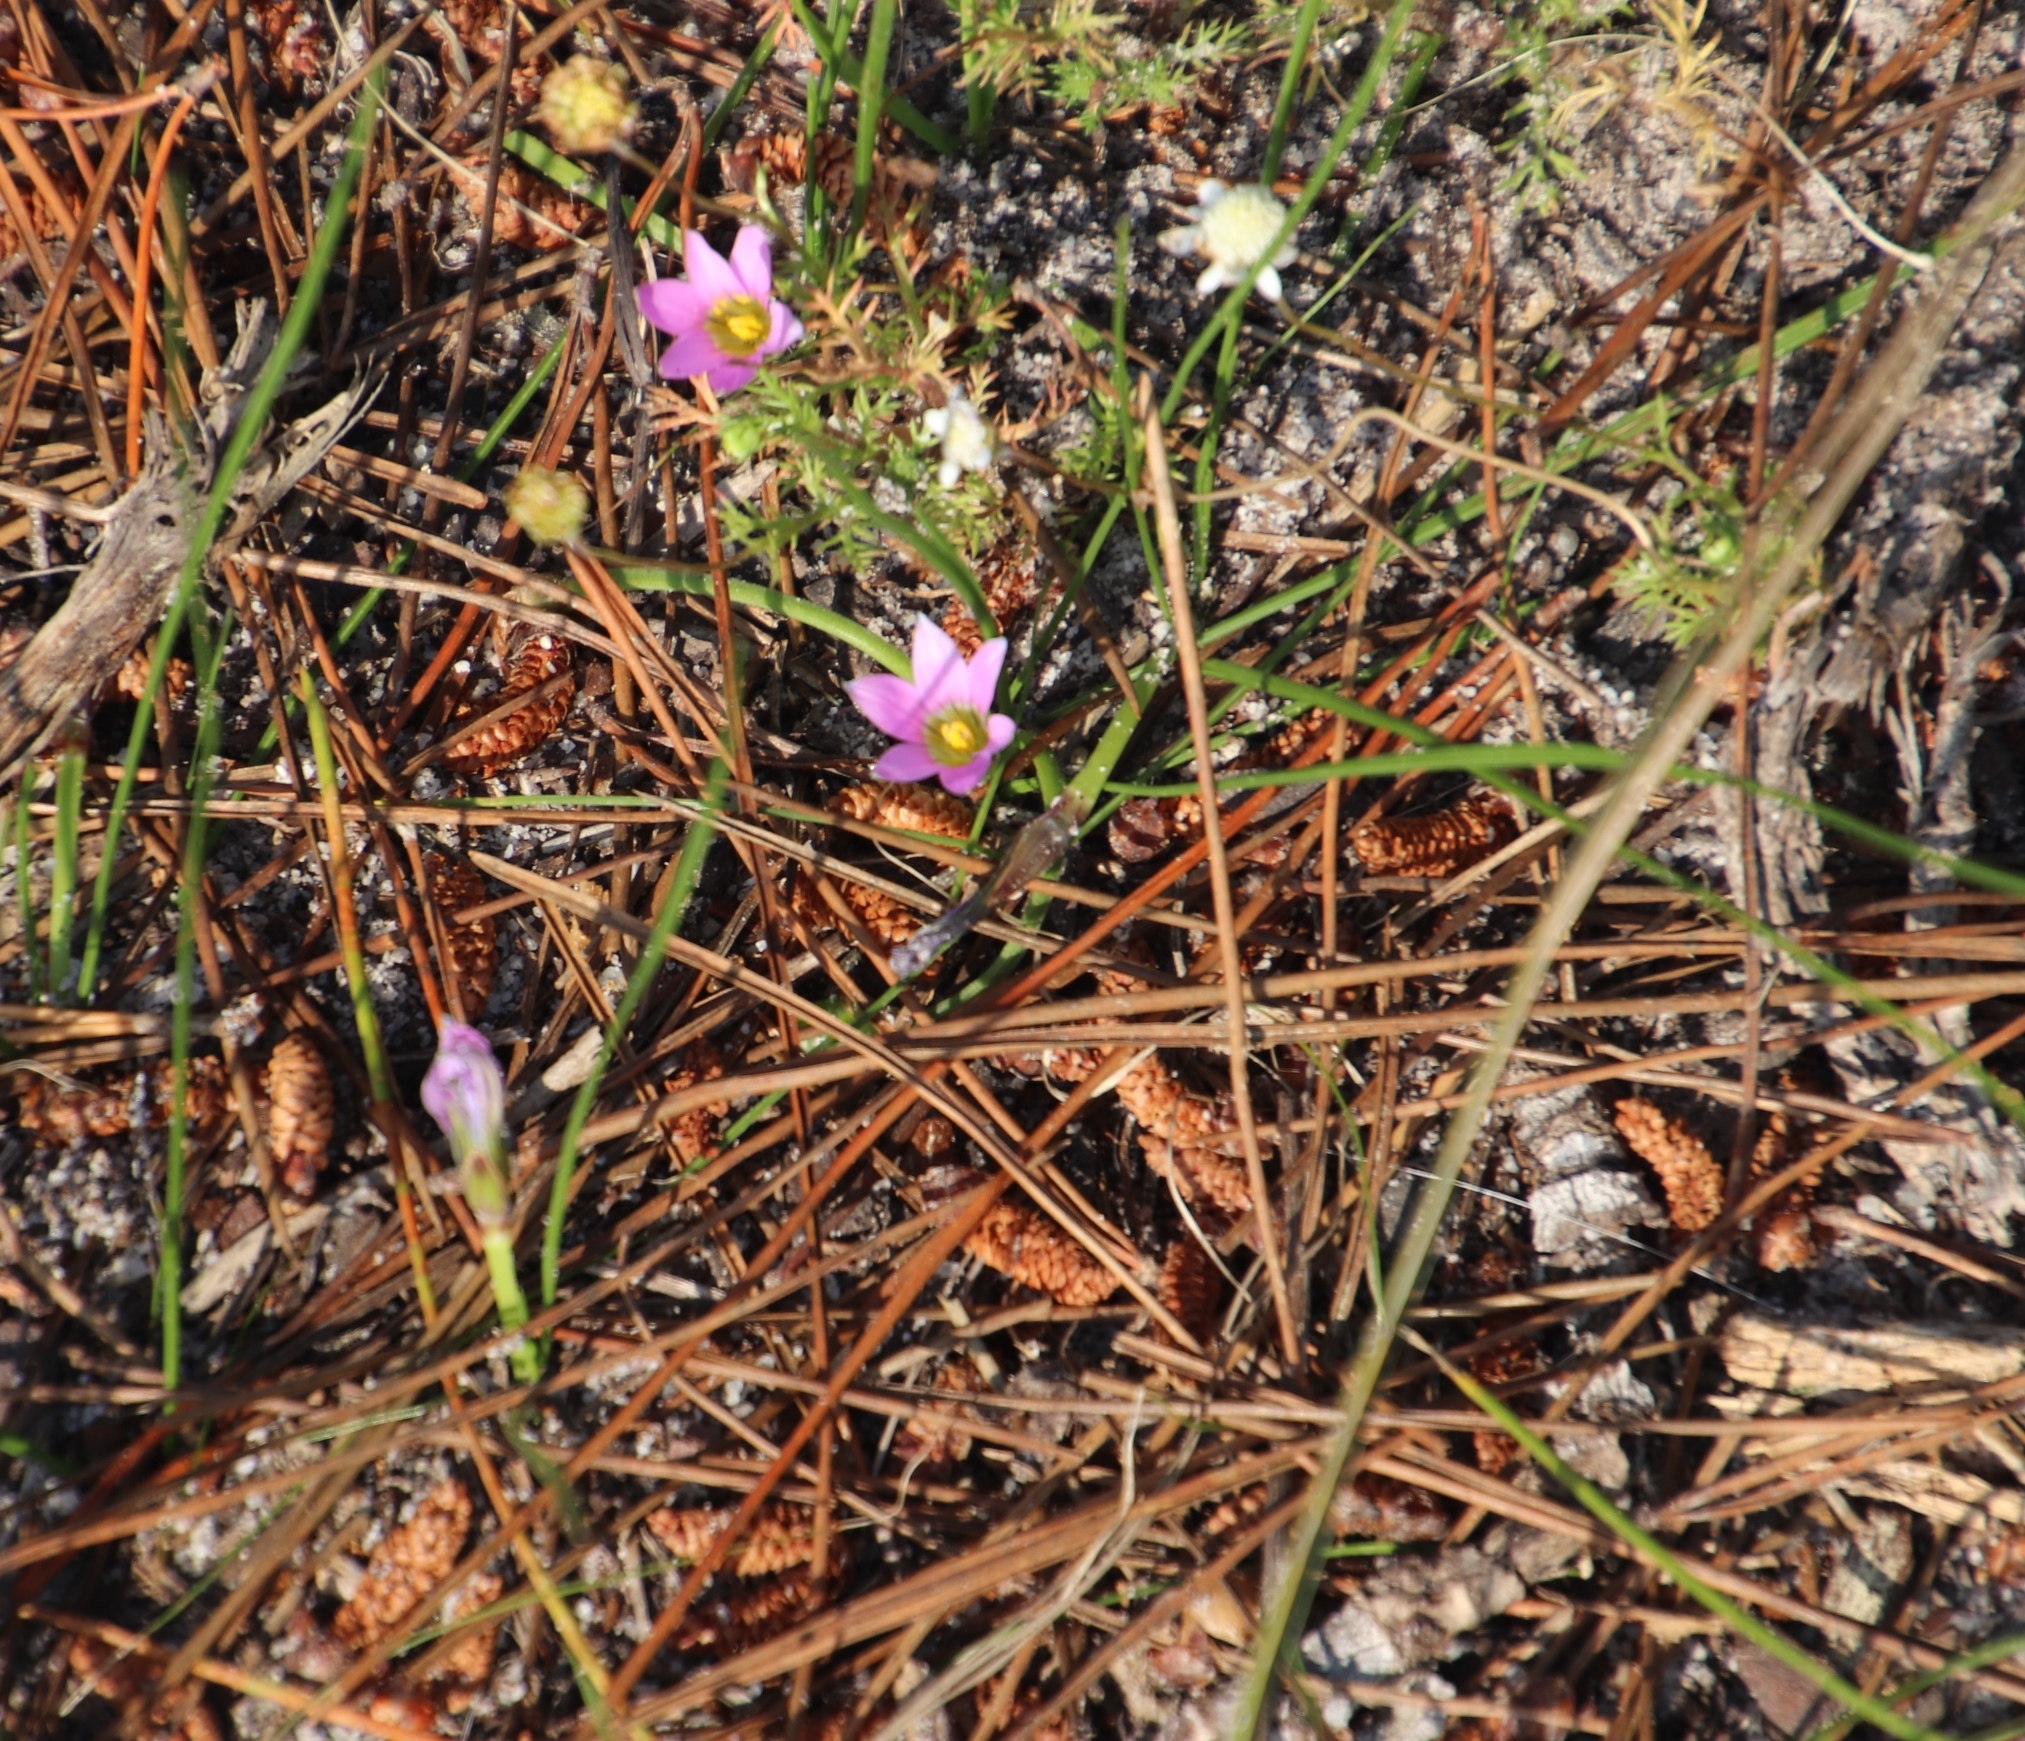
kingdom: Plantae
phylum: Tracheophyta
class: Liliopsida
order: Asparagales
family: Iridaceae
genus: Romulea
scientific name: Romulea rosea
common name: Oniongrass
